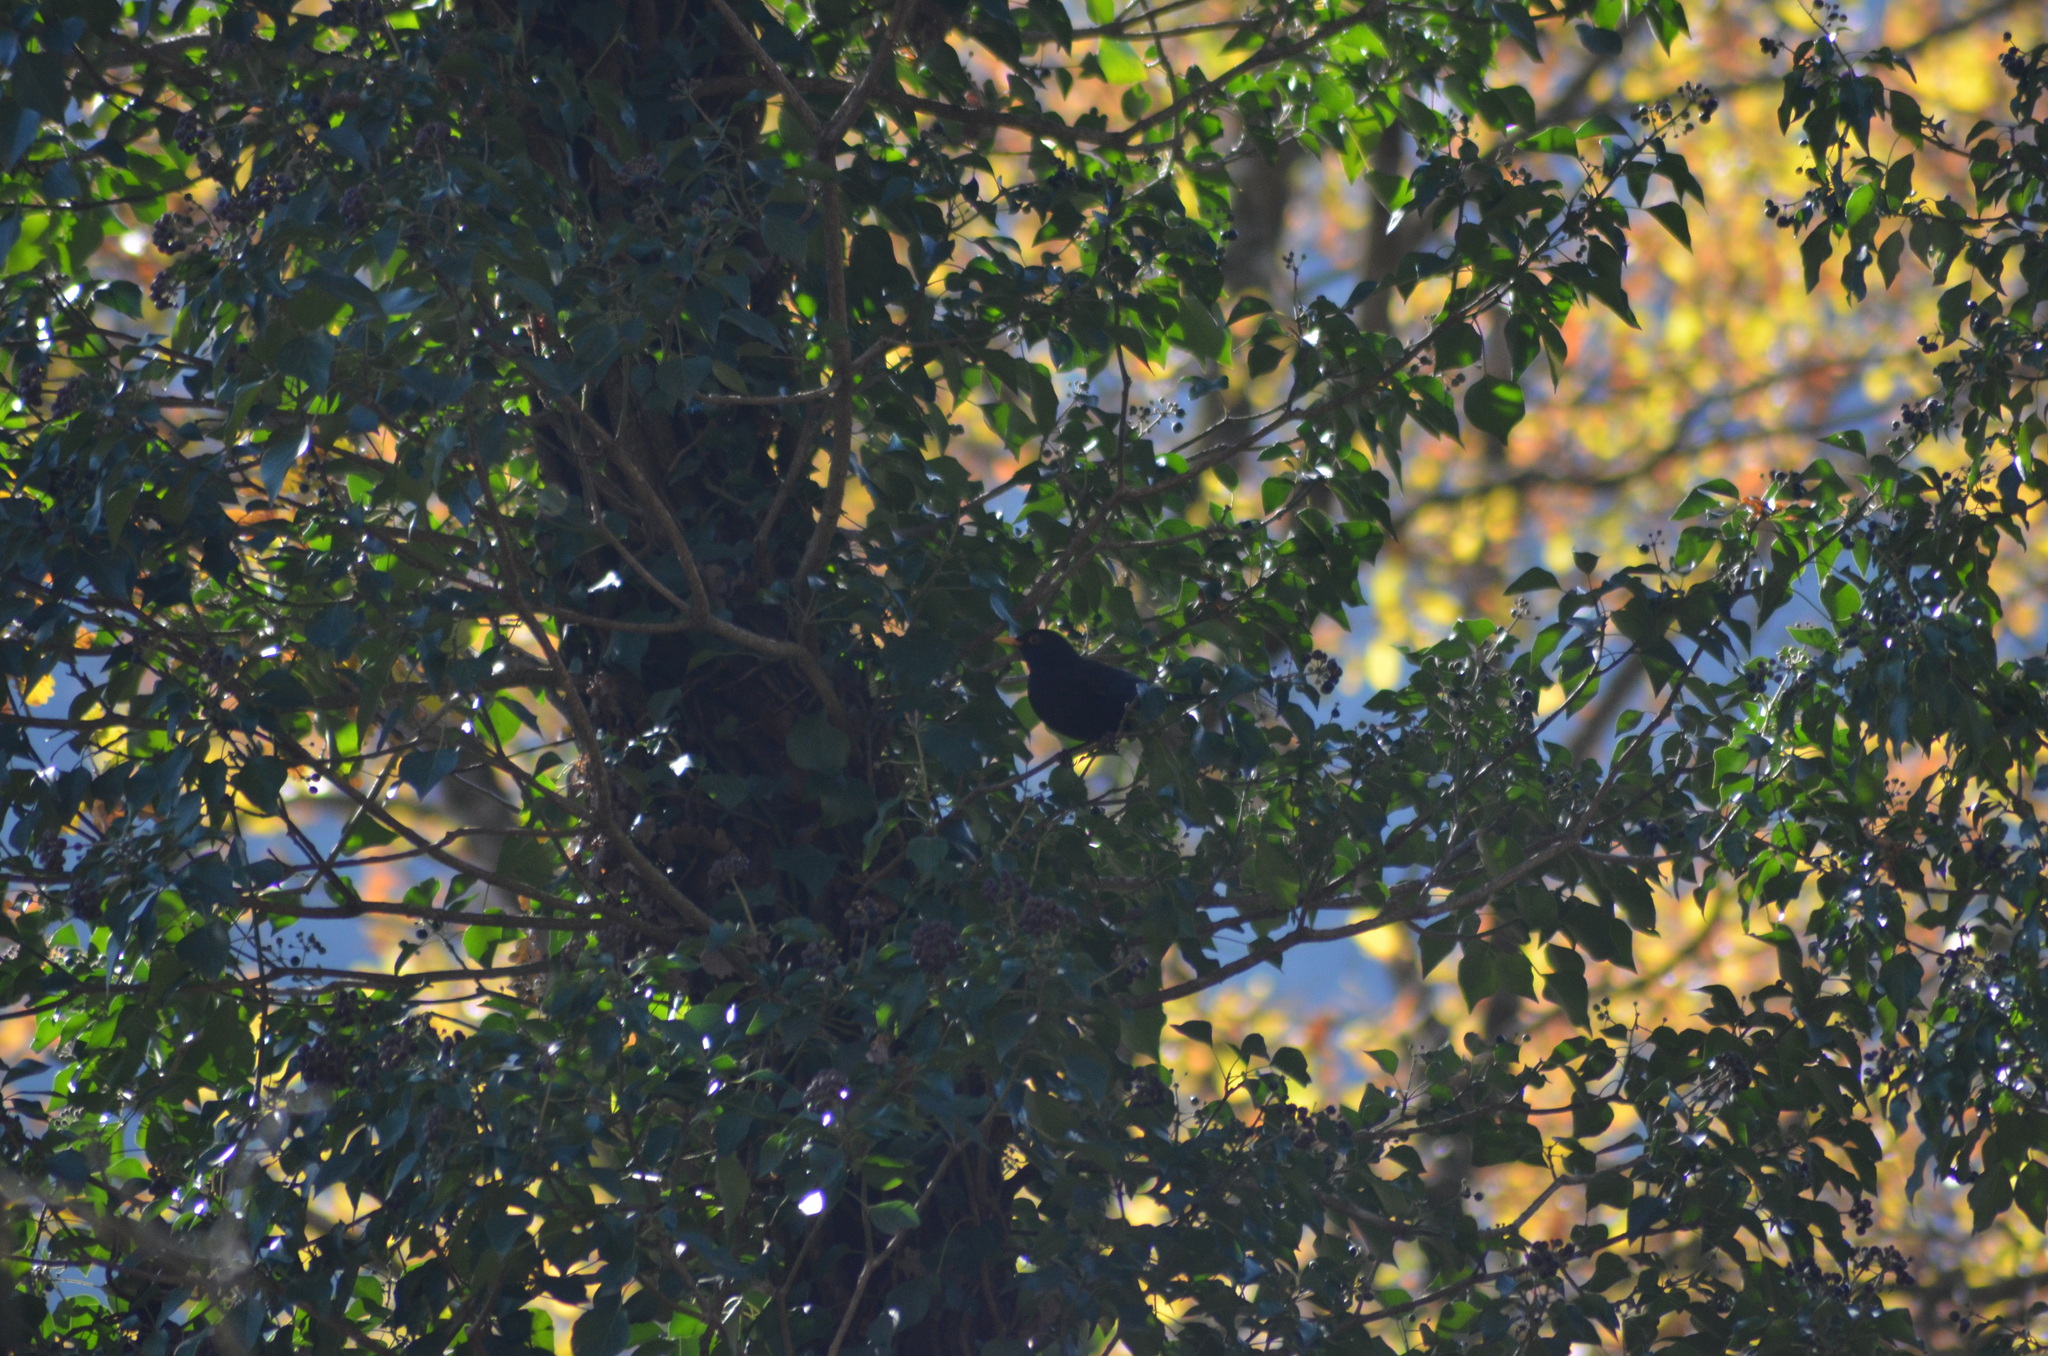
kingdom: Animalia
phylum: Chordata
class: Aves
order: Passeriformes
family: Turdidae
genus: Turdus
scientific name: Turdus merula
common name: Common blackbird
